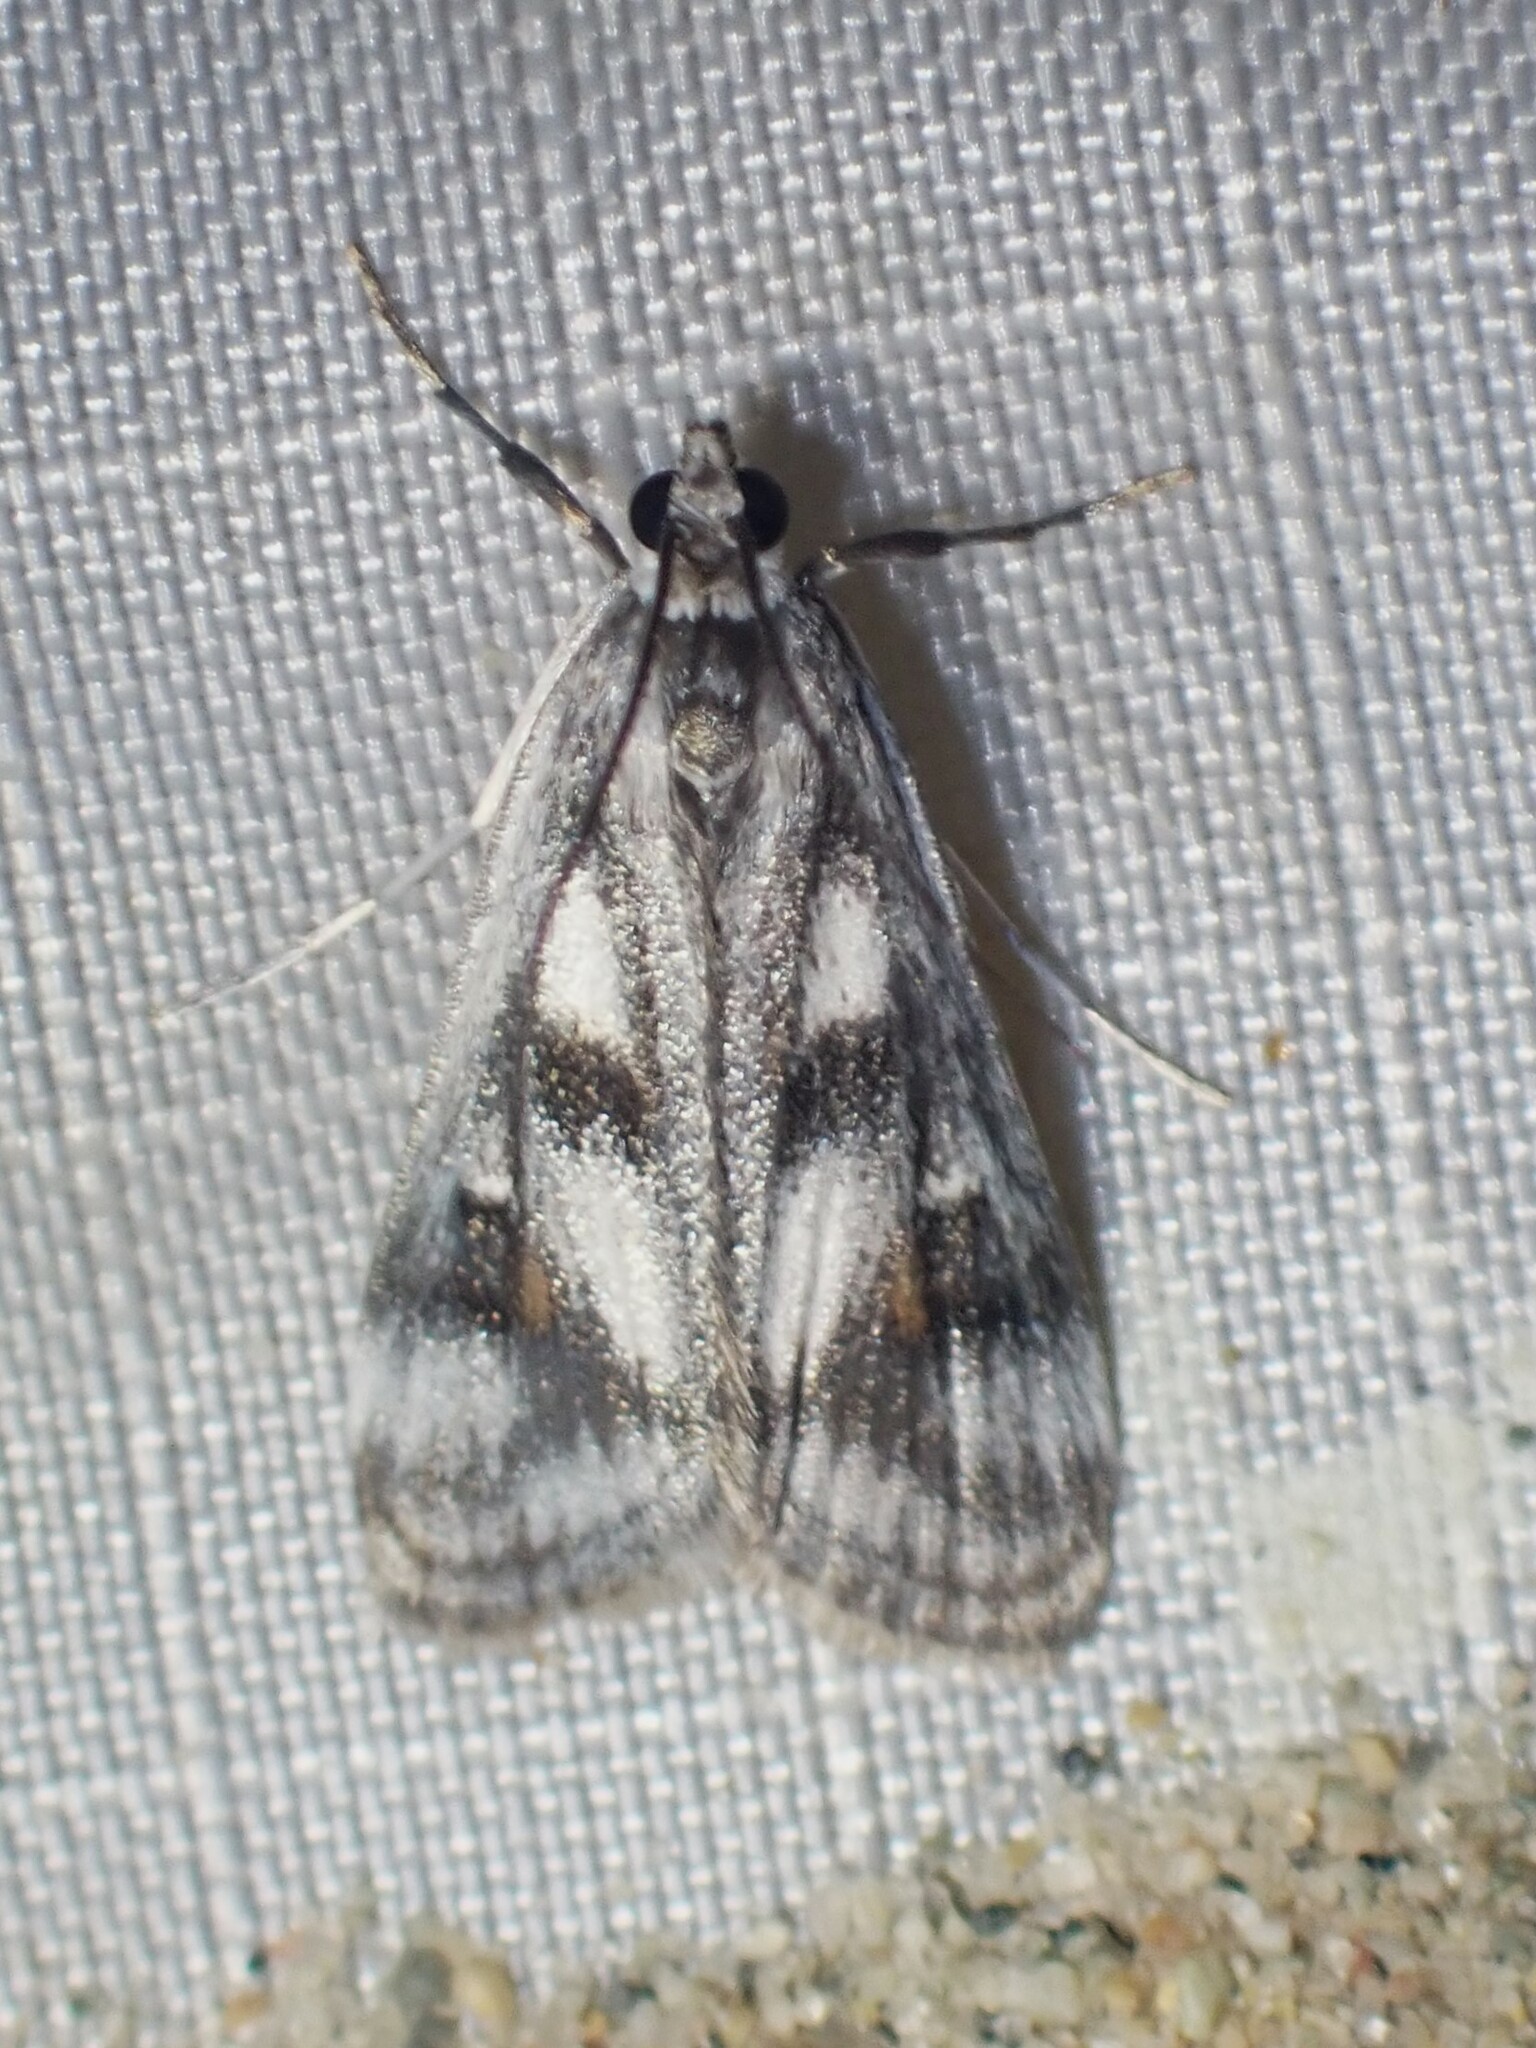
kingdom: Animalia
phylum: Arthropoda
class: Insecta
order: Lepidoptera
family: Crambidae
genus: Parapoynx
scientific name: Parapoynx maculalis
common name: Polymorphic pondweed moth
